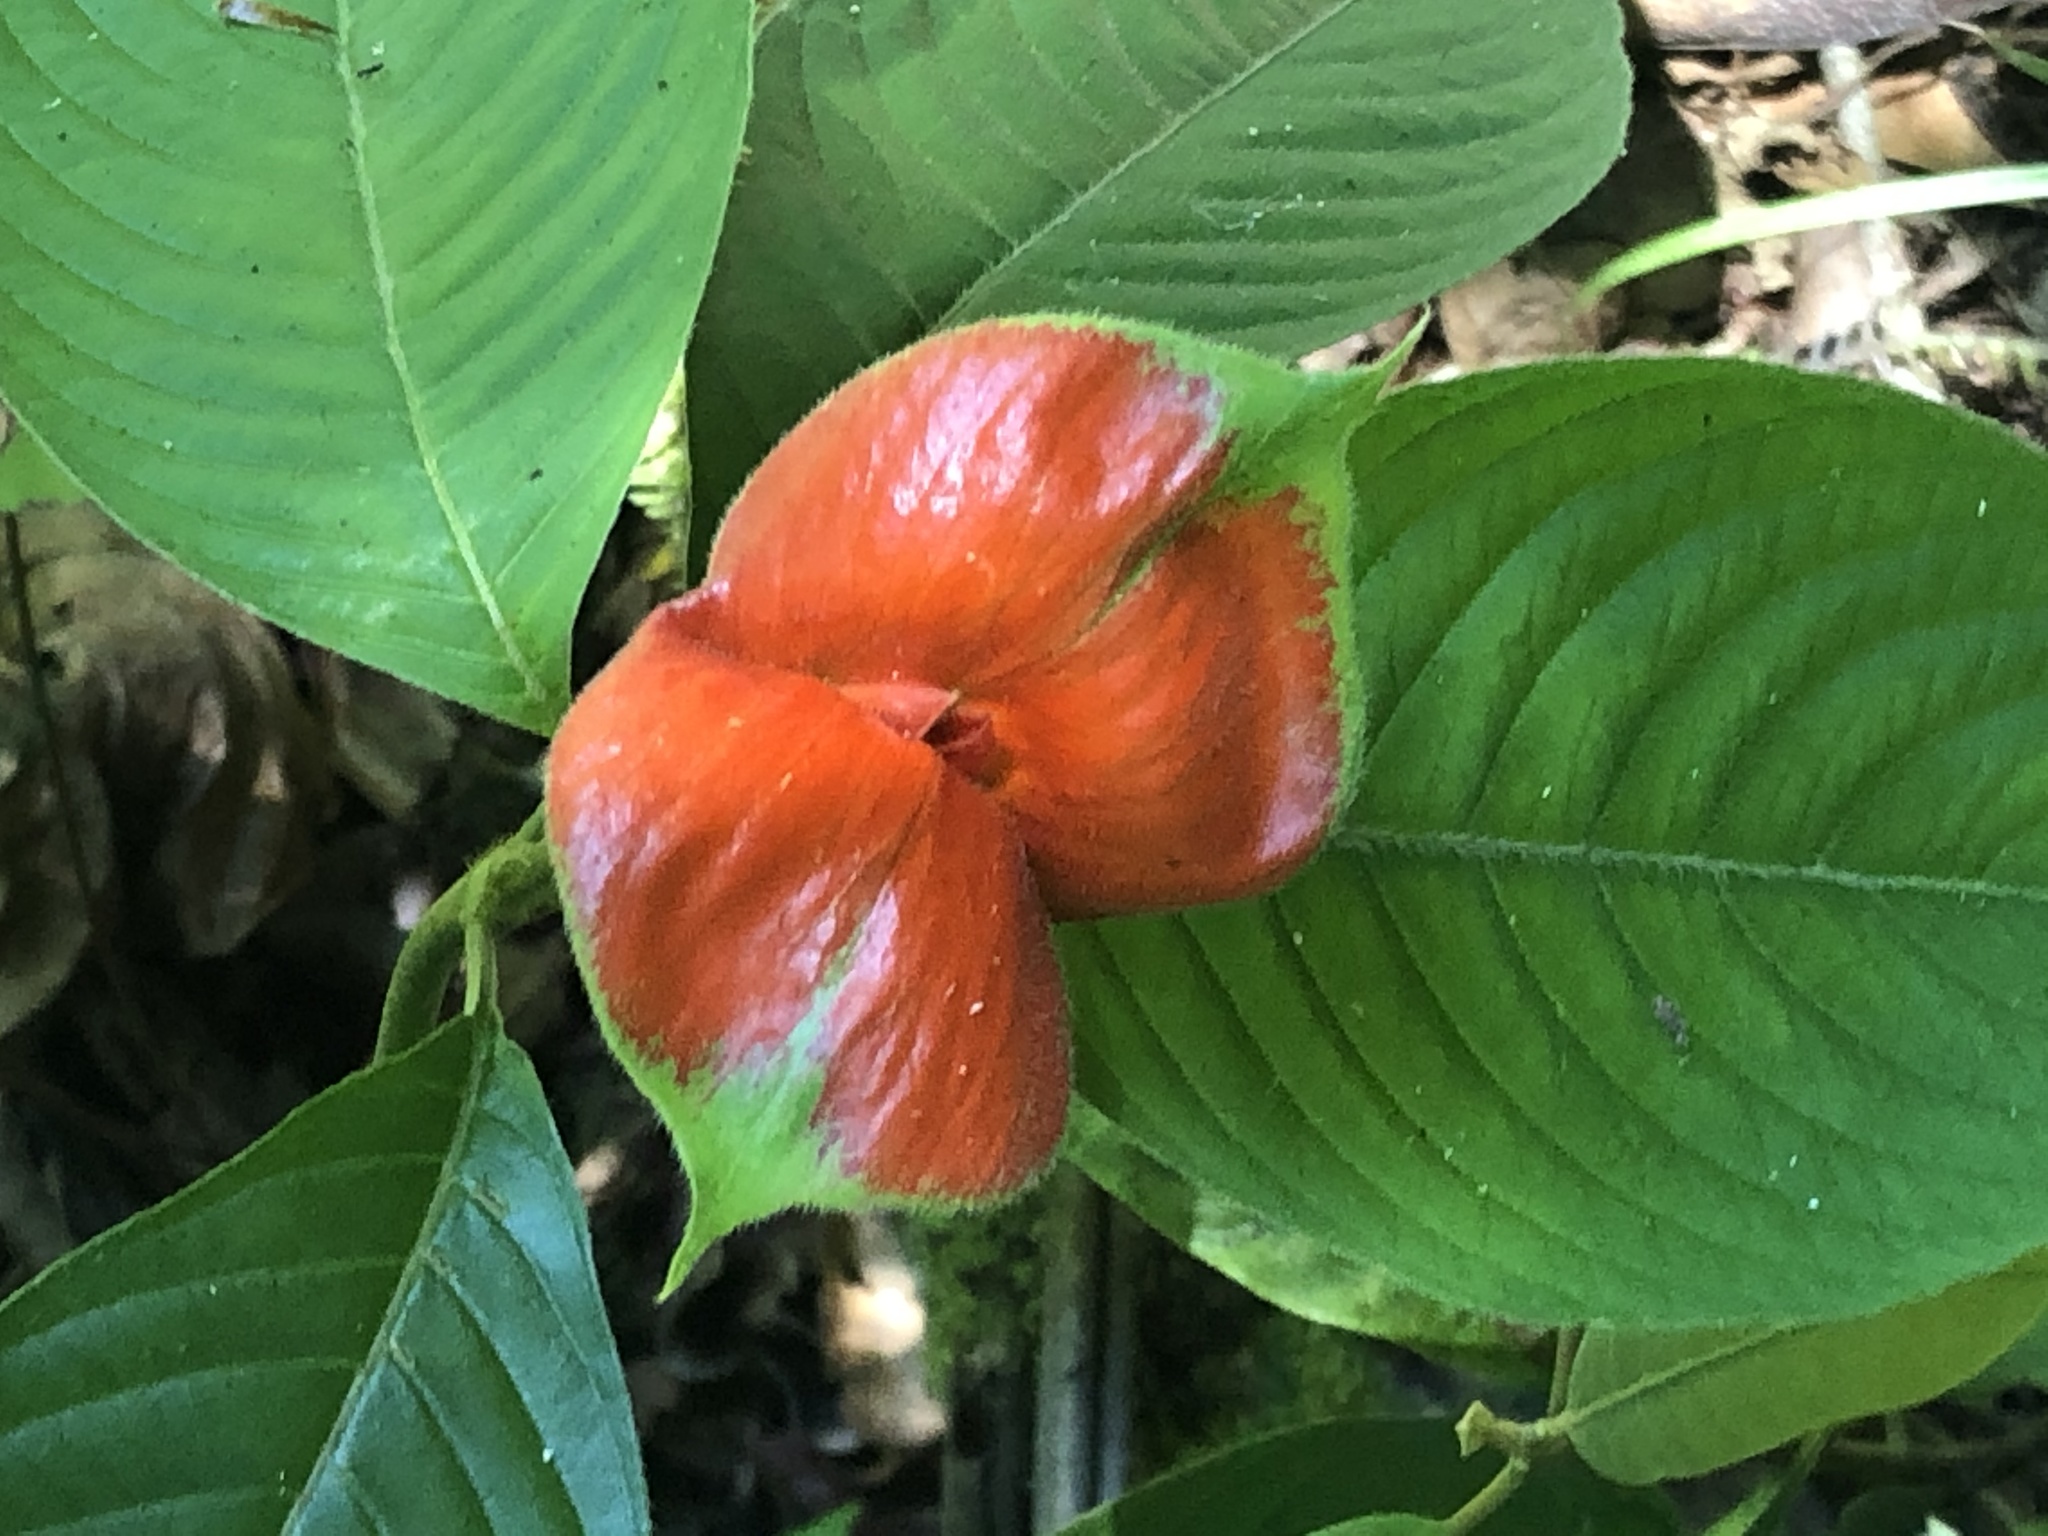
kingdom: Plantae
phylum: Tracheophyta
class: Magnoliopsida
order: Gentianales
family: Rubiaceae
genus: Palicourea
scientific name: Palicourea tomentosa
